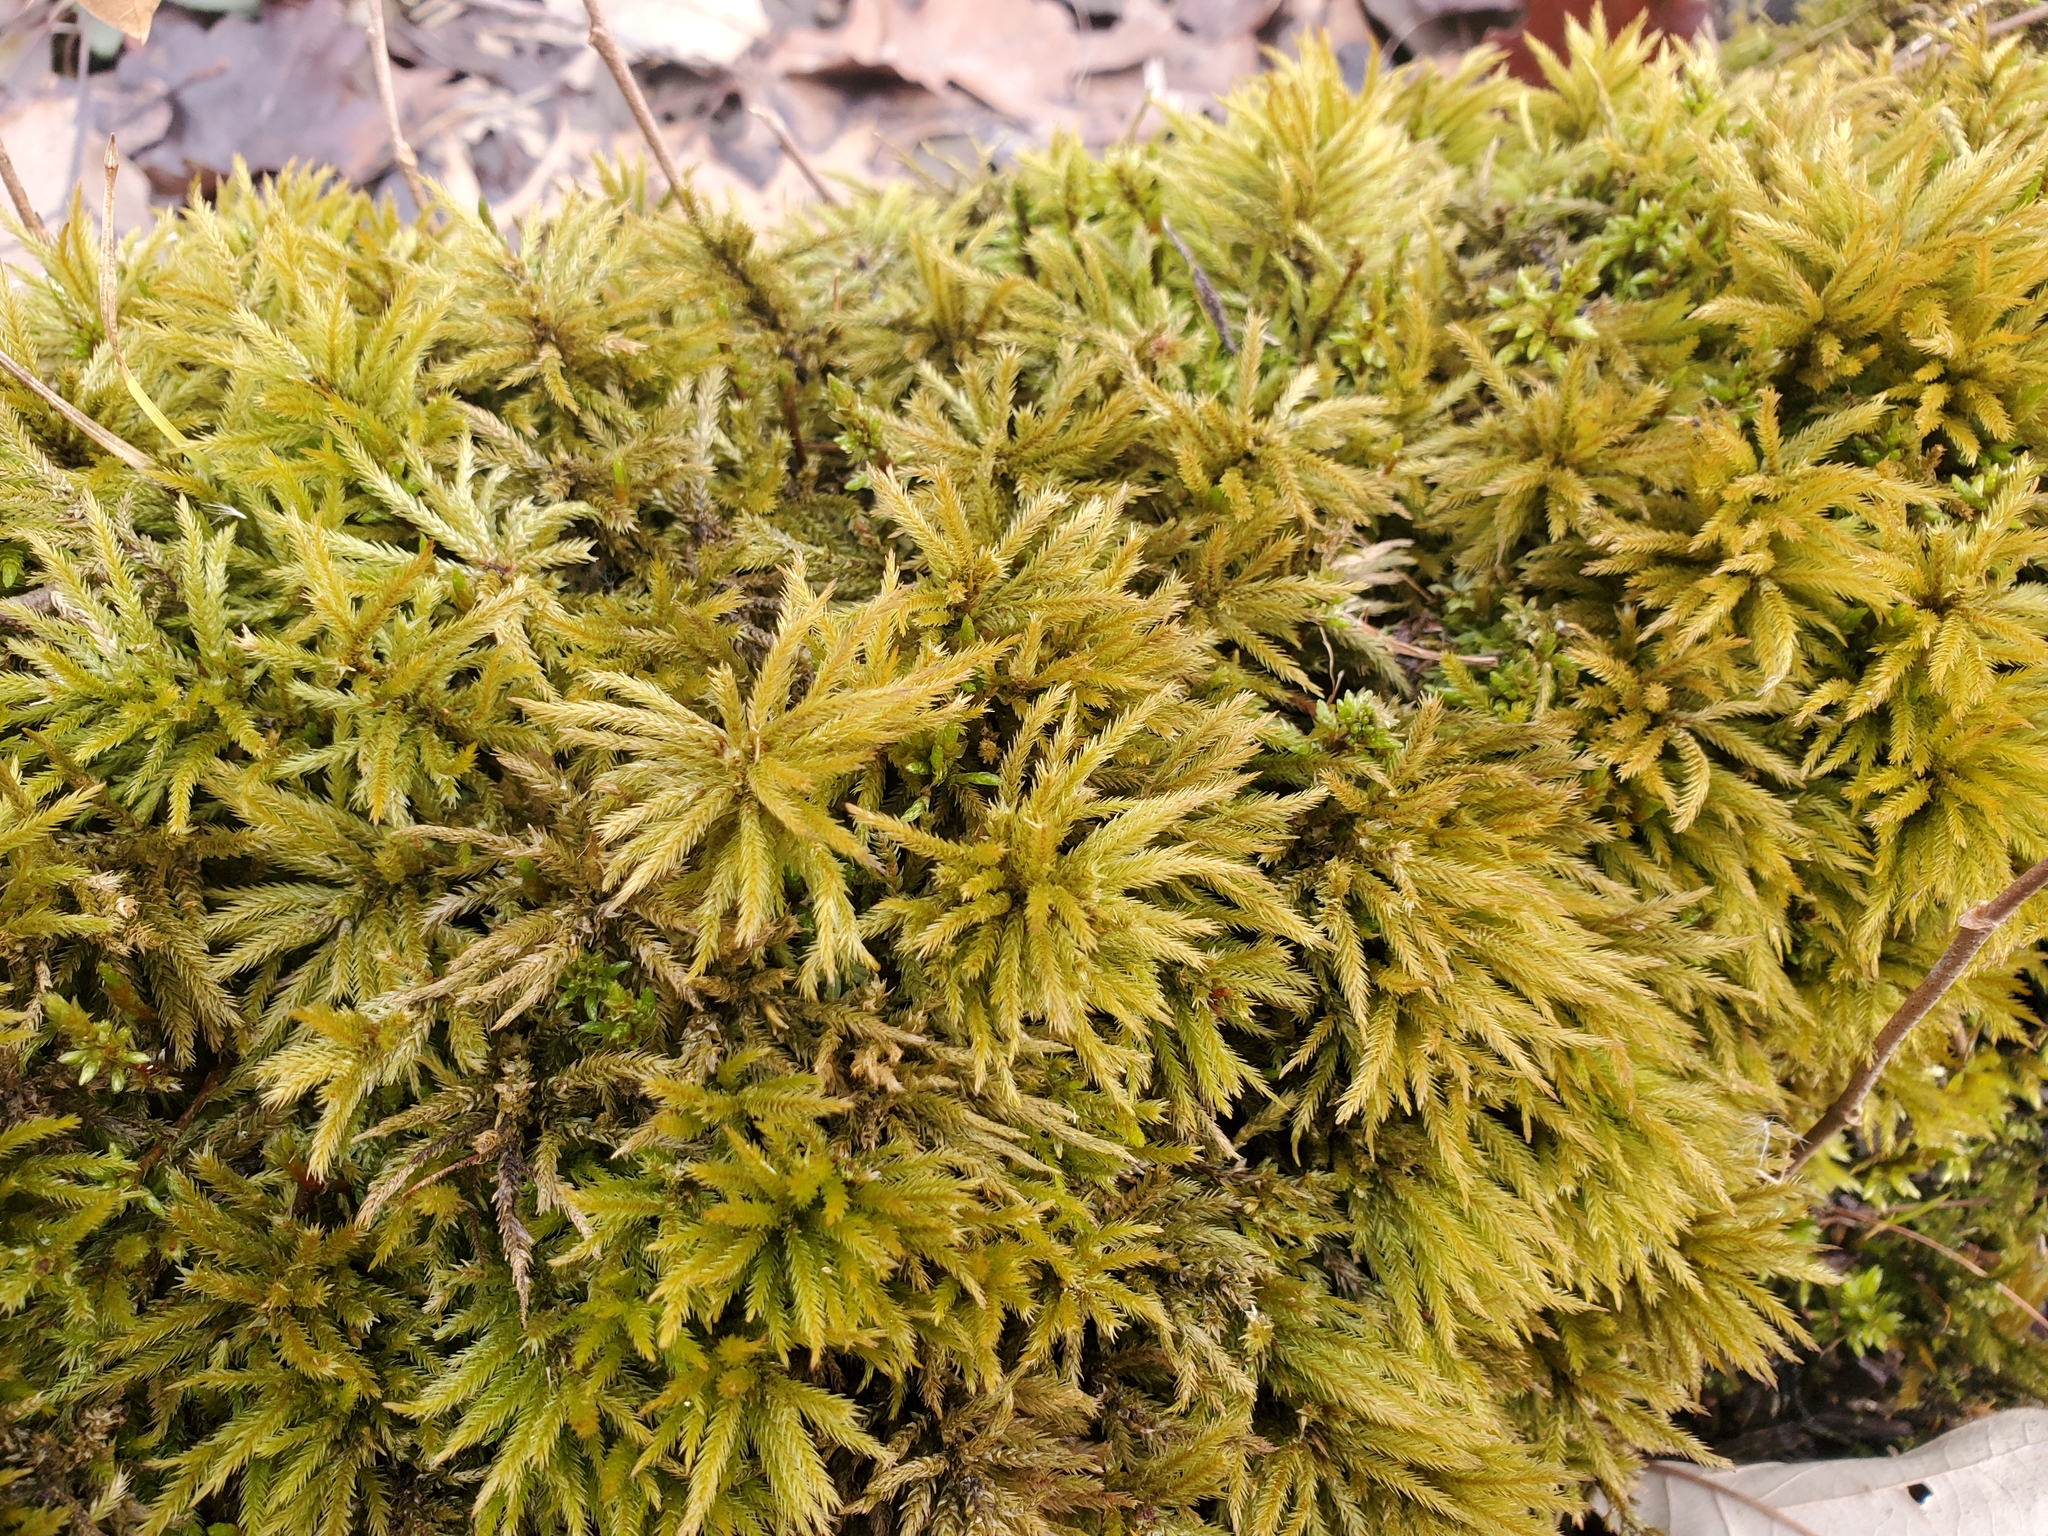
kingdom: Plantae
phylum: Bryophyta
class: Bryopsida
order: Hypnales
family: Climaciaceae
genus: Climacium
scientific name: Climacium americanum
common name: American tree moss
